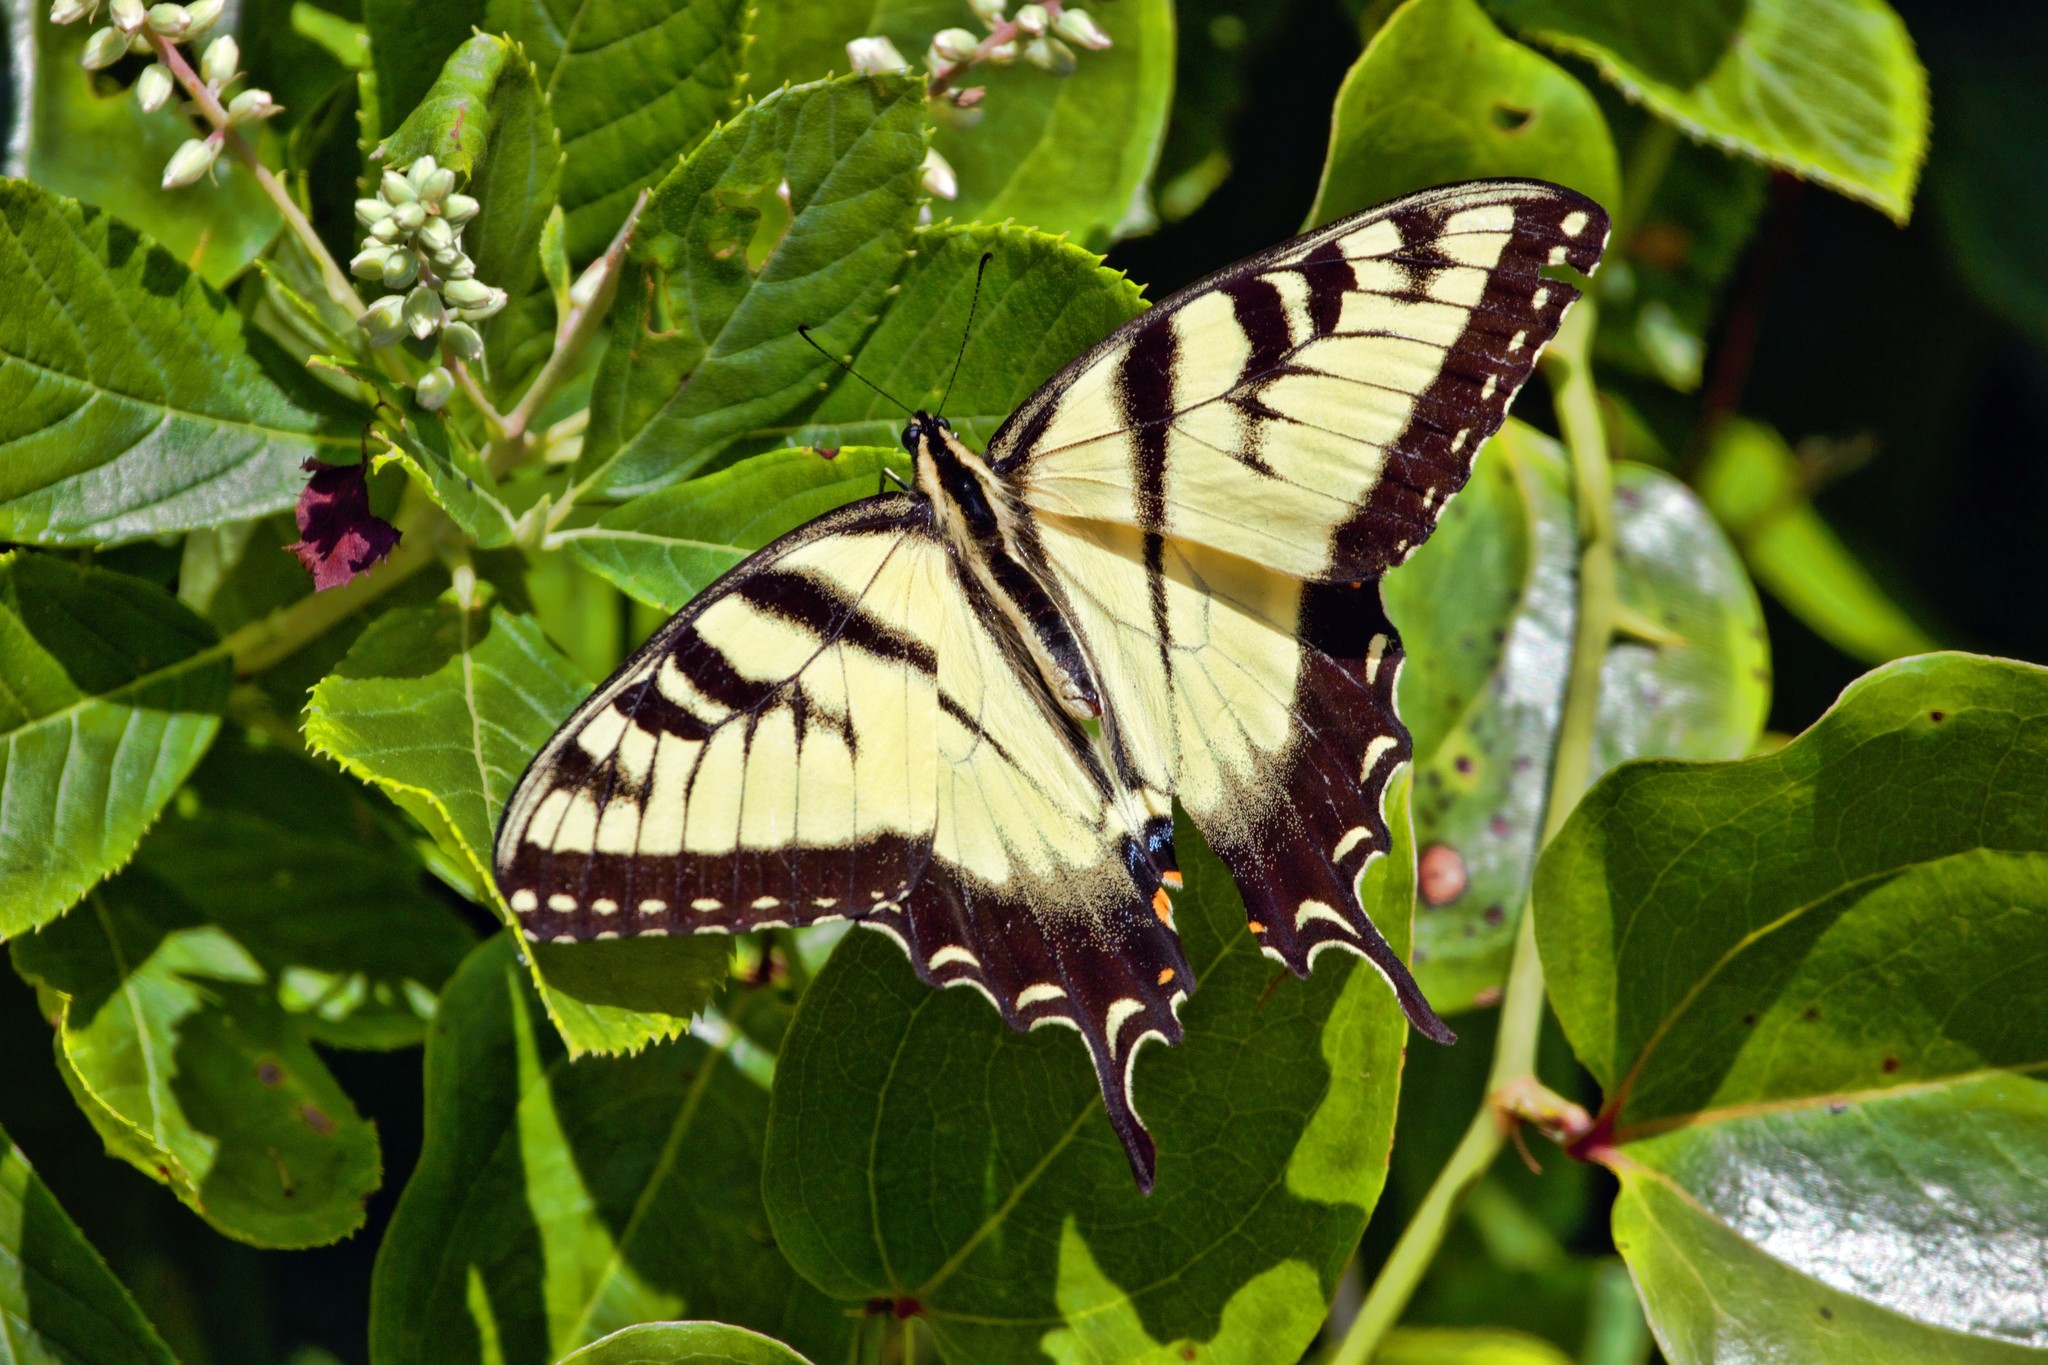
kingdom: Animalia
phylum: Arthropoda
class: Insecta
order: Lepidoptera
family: Papilionidae
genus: Papilio
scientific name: Papilio glaucus
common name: Tiger swallowtail
